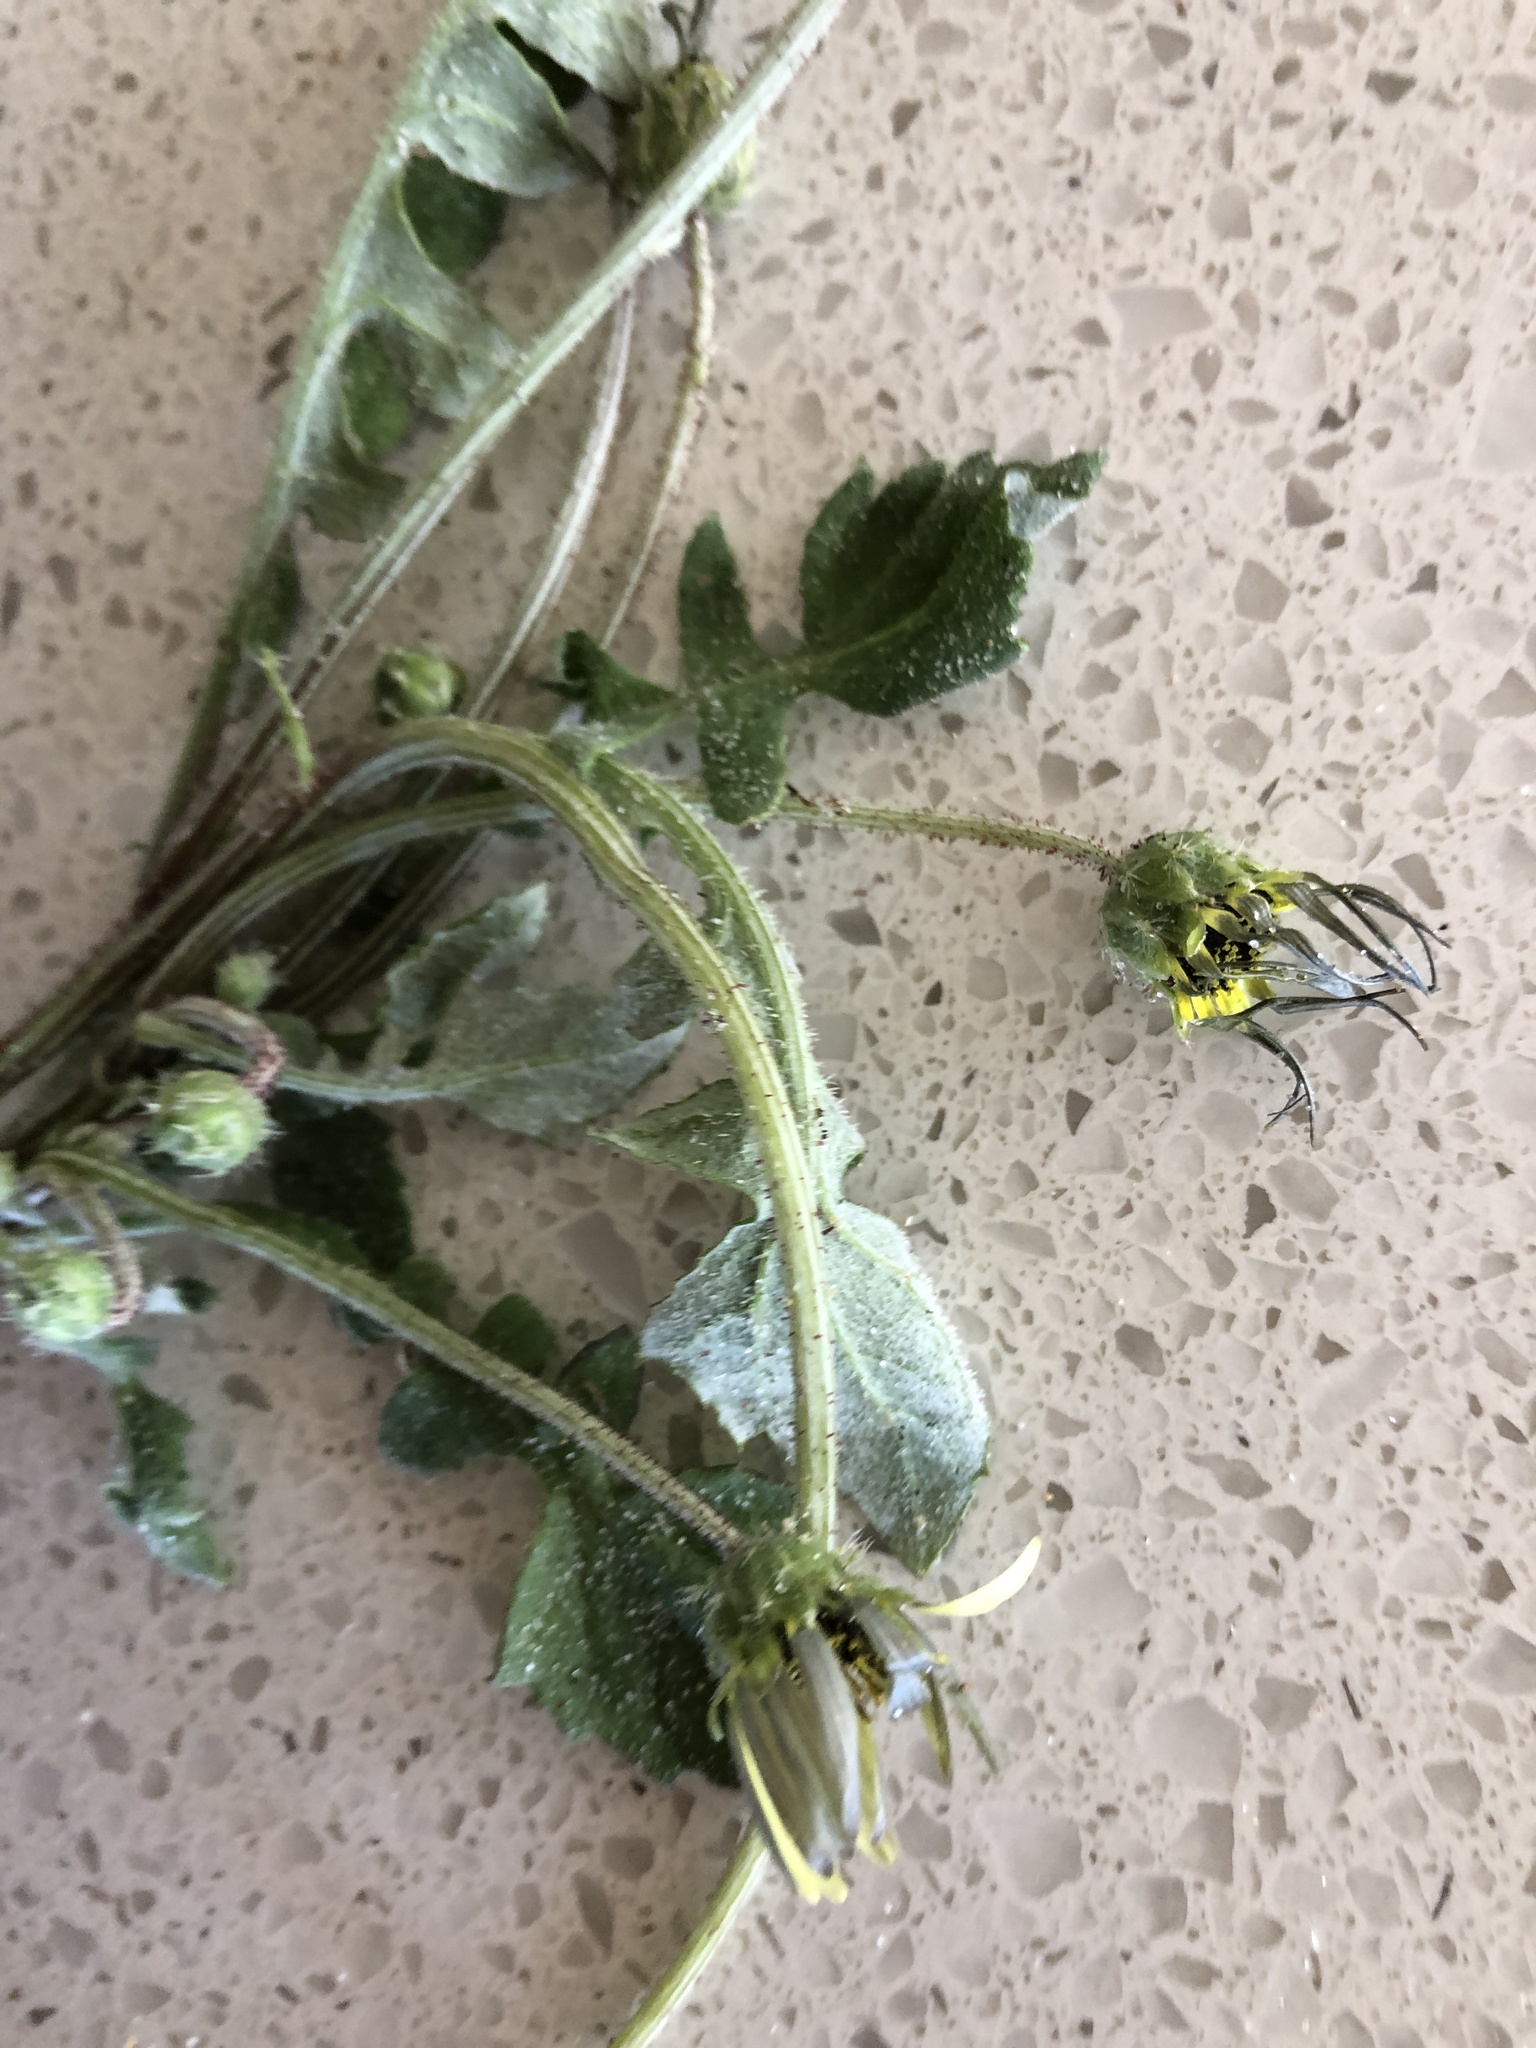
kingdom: Plantae
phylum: Tracheophyta
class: Magnoliopsida
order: Asterales
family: Asteraceae
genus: Arctotheca
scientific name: Arctotheca calendula
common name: Capeweed
